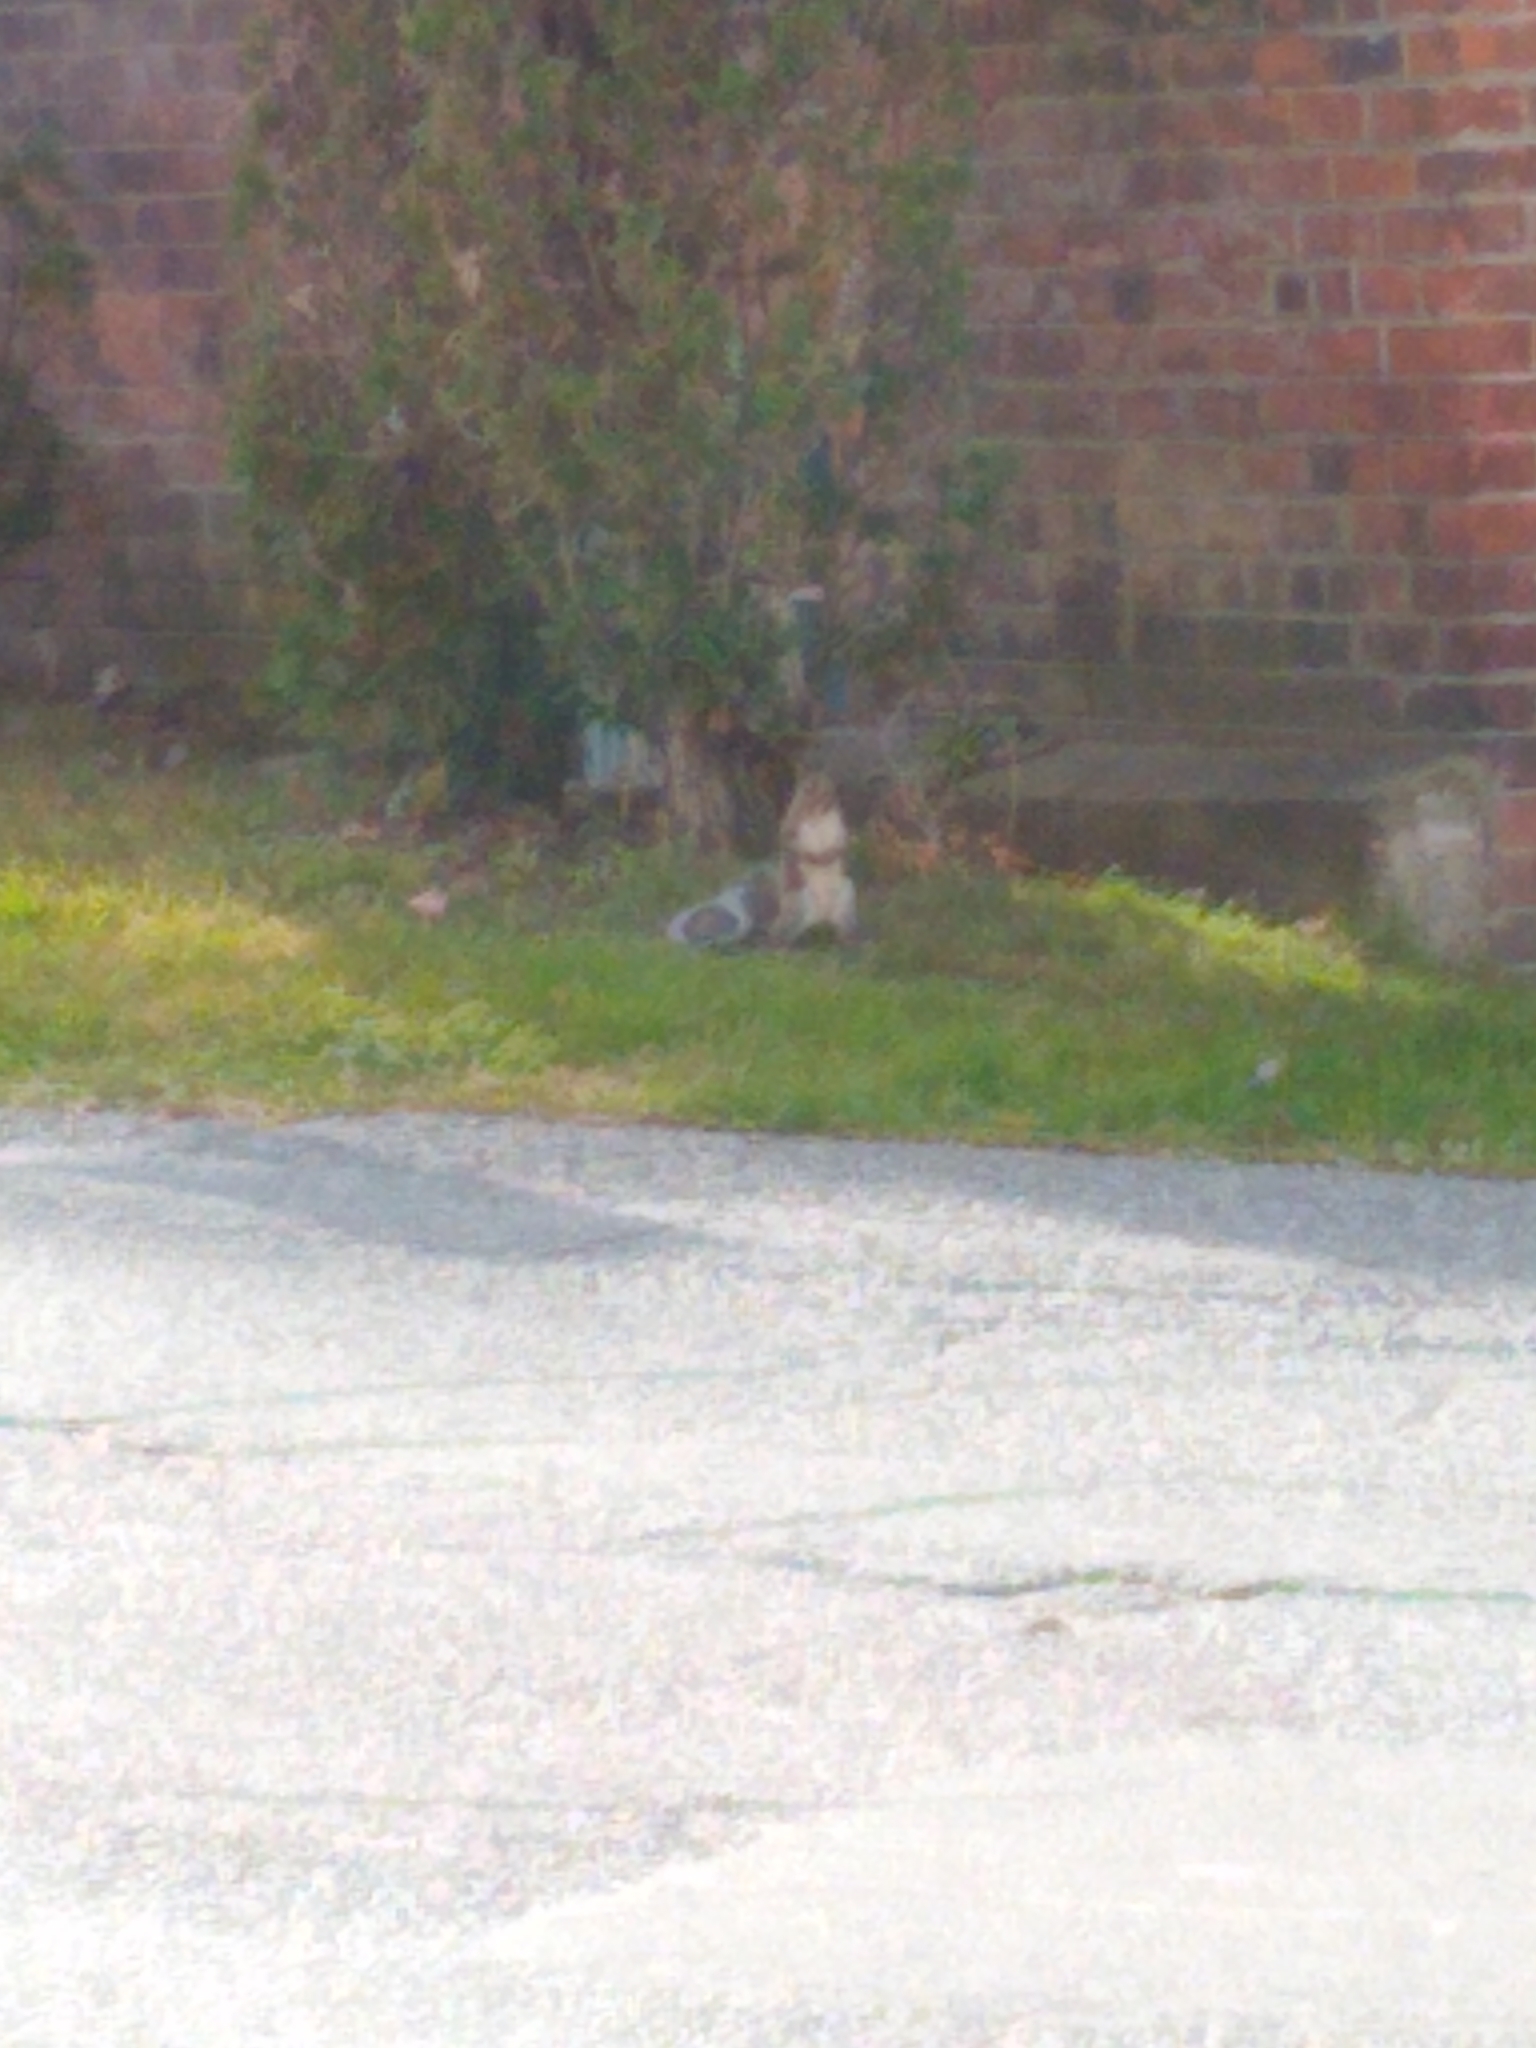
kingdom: Animalia
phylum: Chordata
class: Mammalia
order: Rodentia
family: Sciuridae
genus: Sciurus
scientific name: Sciurus carolinensis
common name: Eastern gray squirrel
